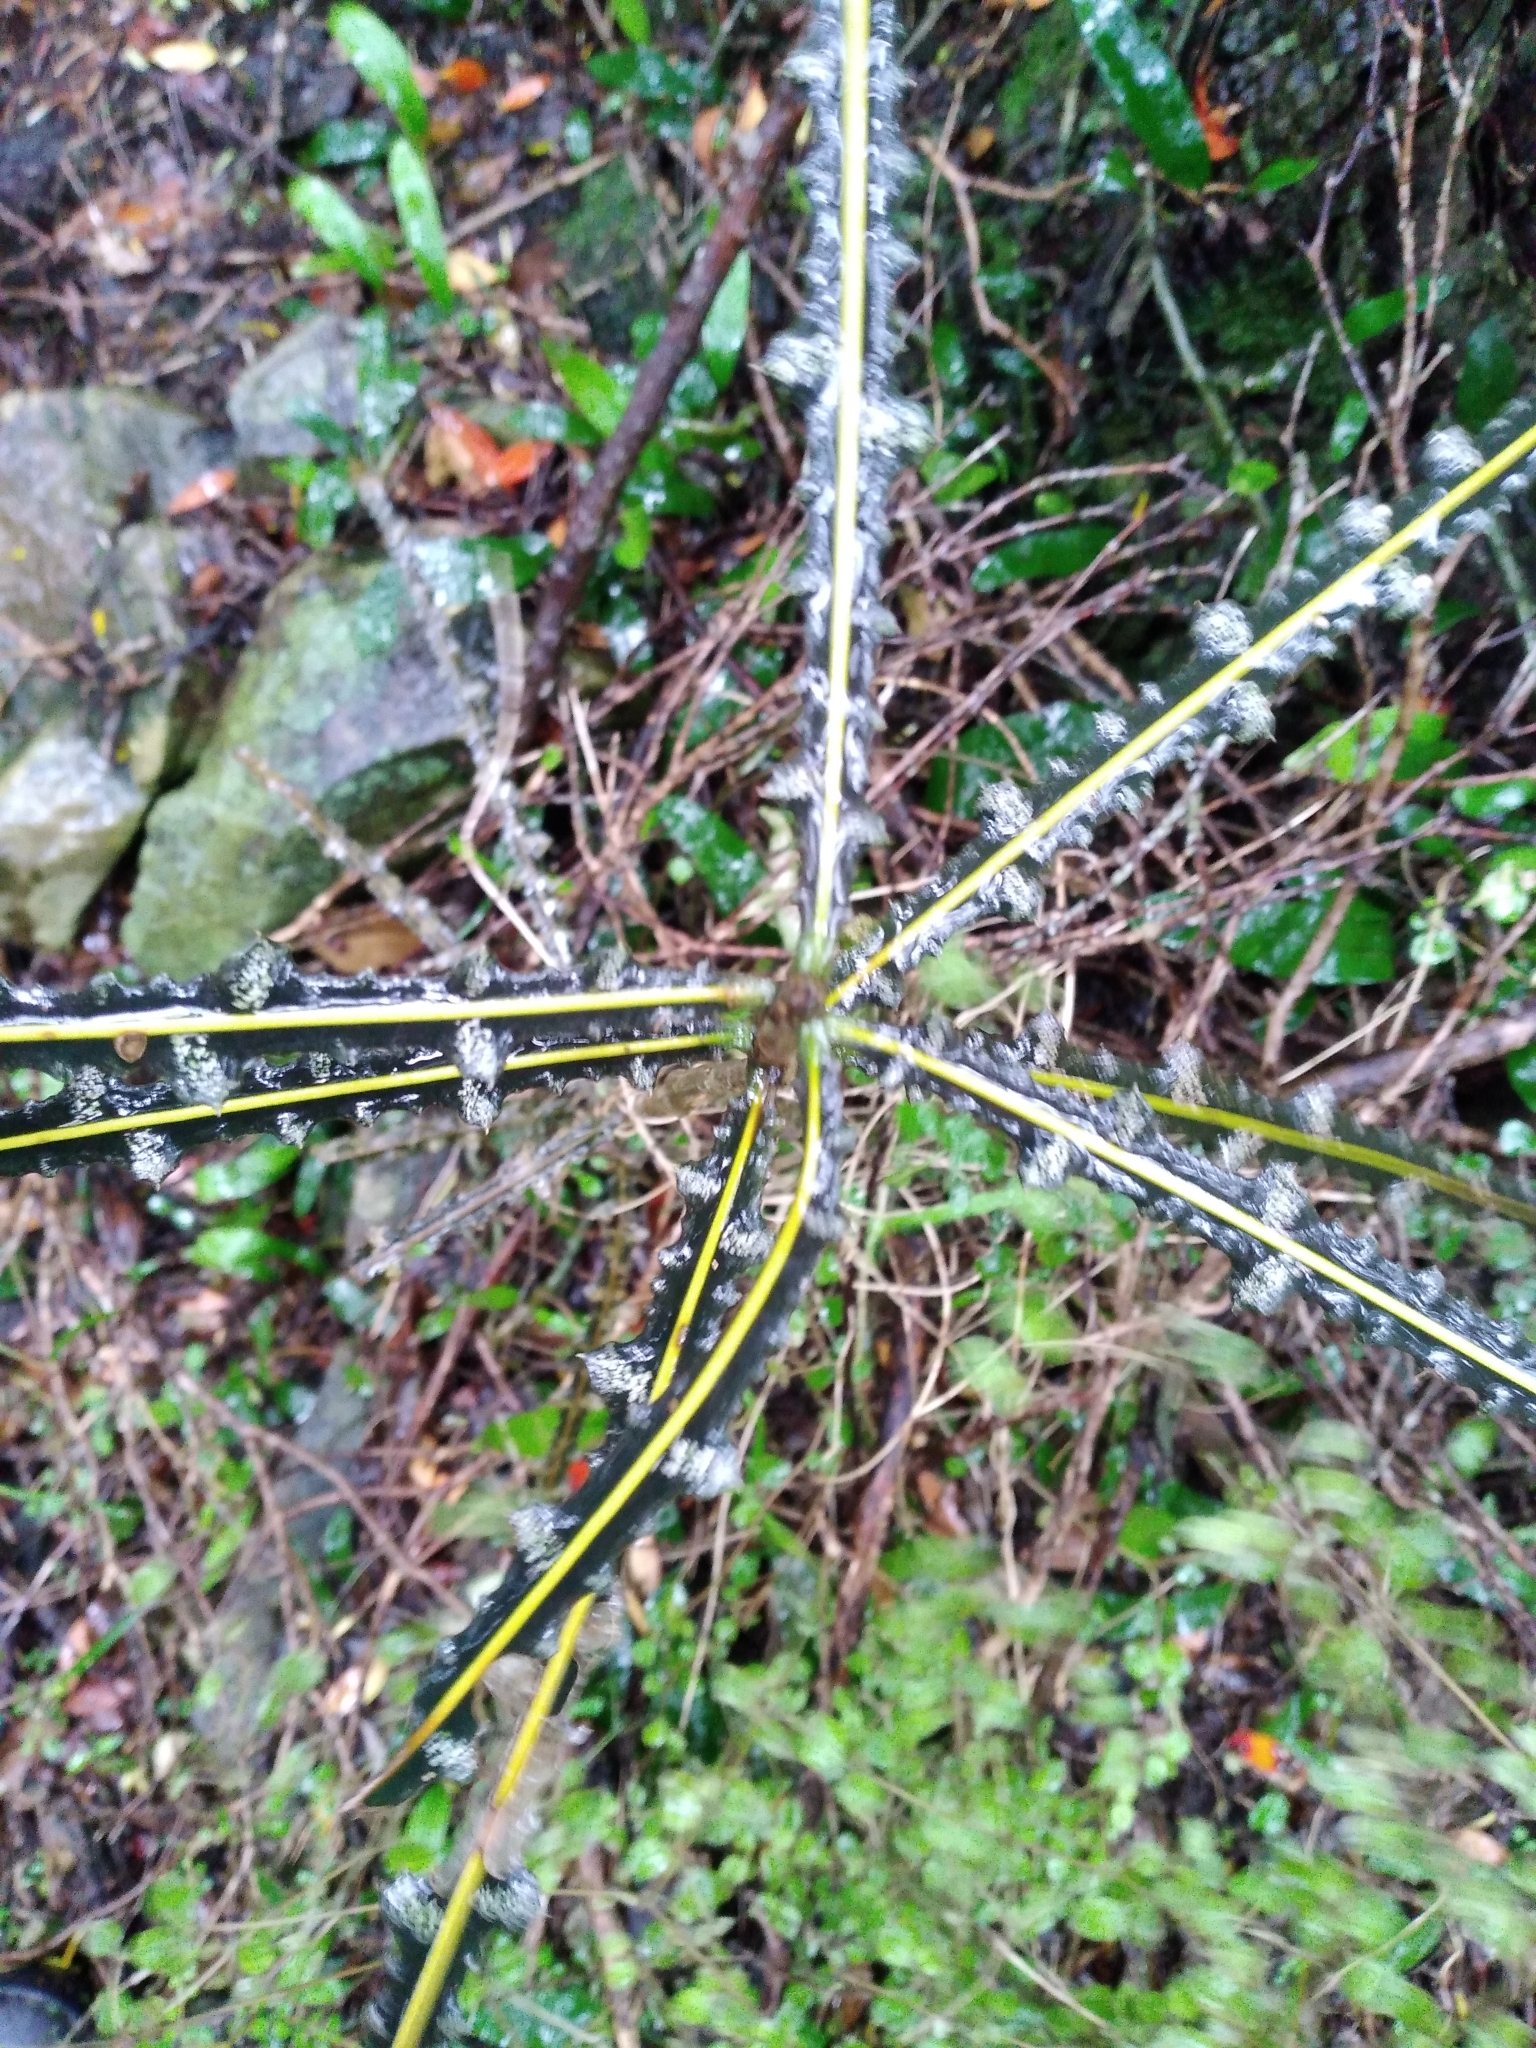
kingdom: Plantae
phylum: Tracheophyta
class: Magnoliopsida
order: Apiales
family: Araliaceae
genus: Pseudopanax
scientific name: Pseudopanax ferox
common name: Fierce lancewood
